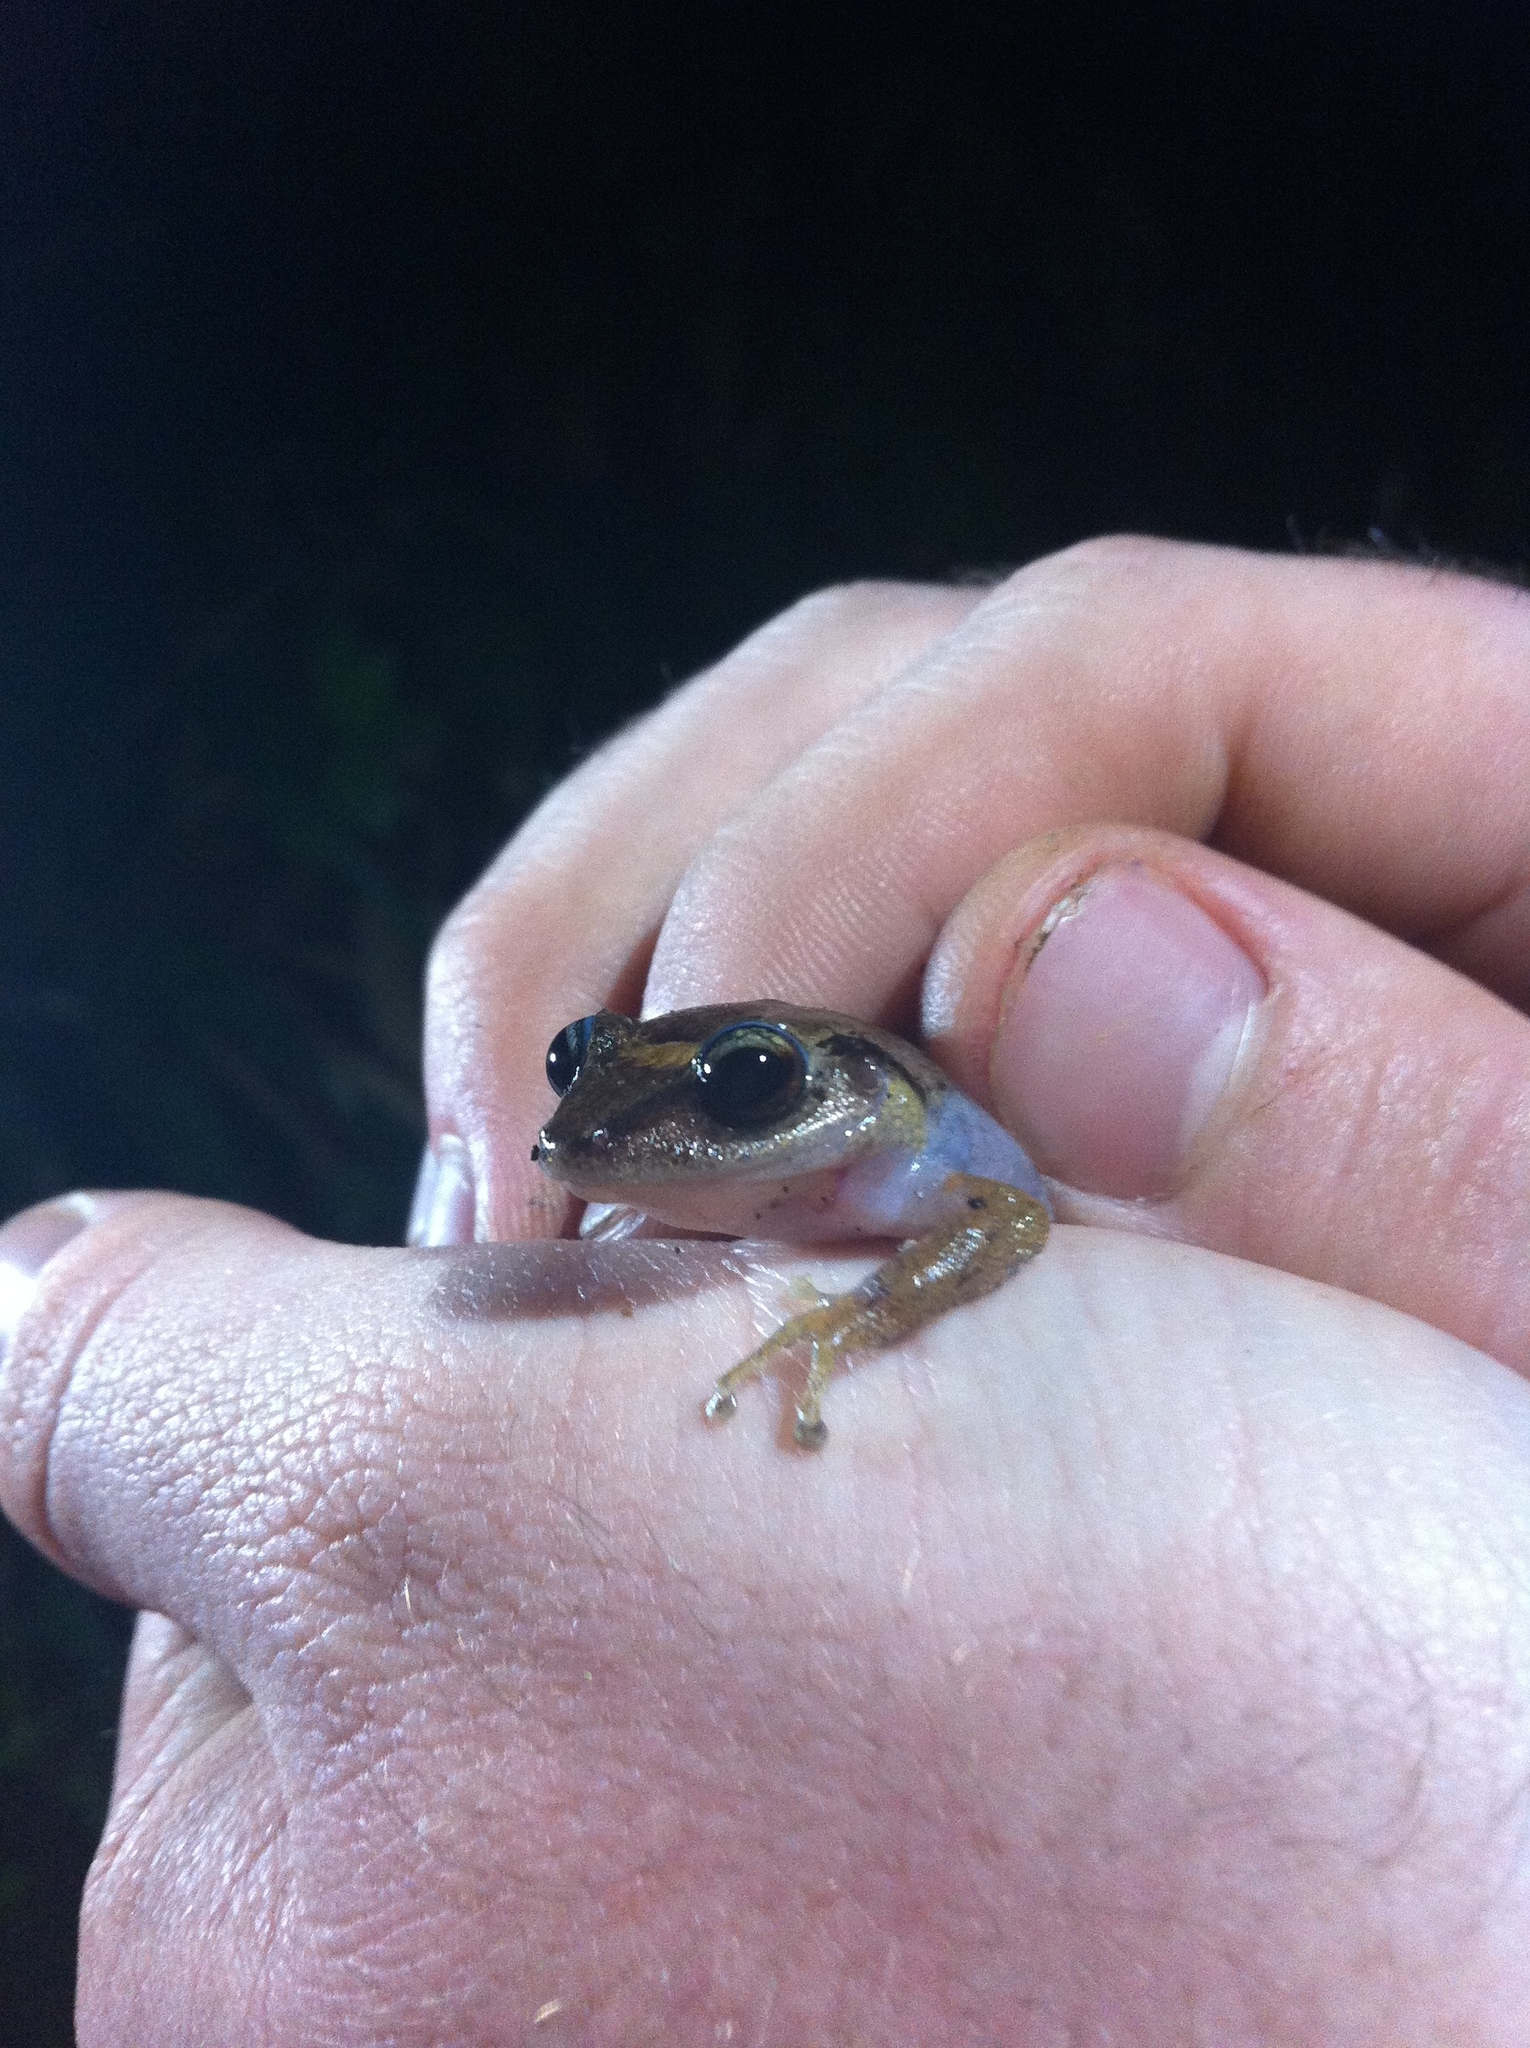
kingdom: Animalia
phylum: Chordata
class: Amphibia
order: Anura
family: Eleutherodactylidae
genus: Eleutherodactylus
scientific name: Eleutherodactylus martinicensis
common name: Martinique frog
